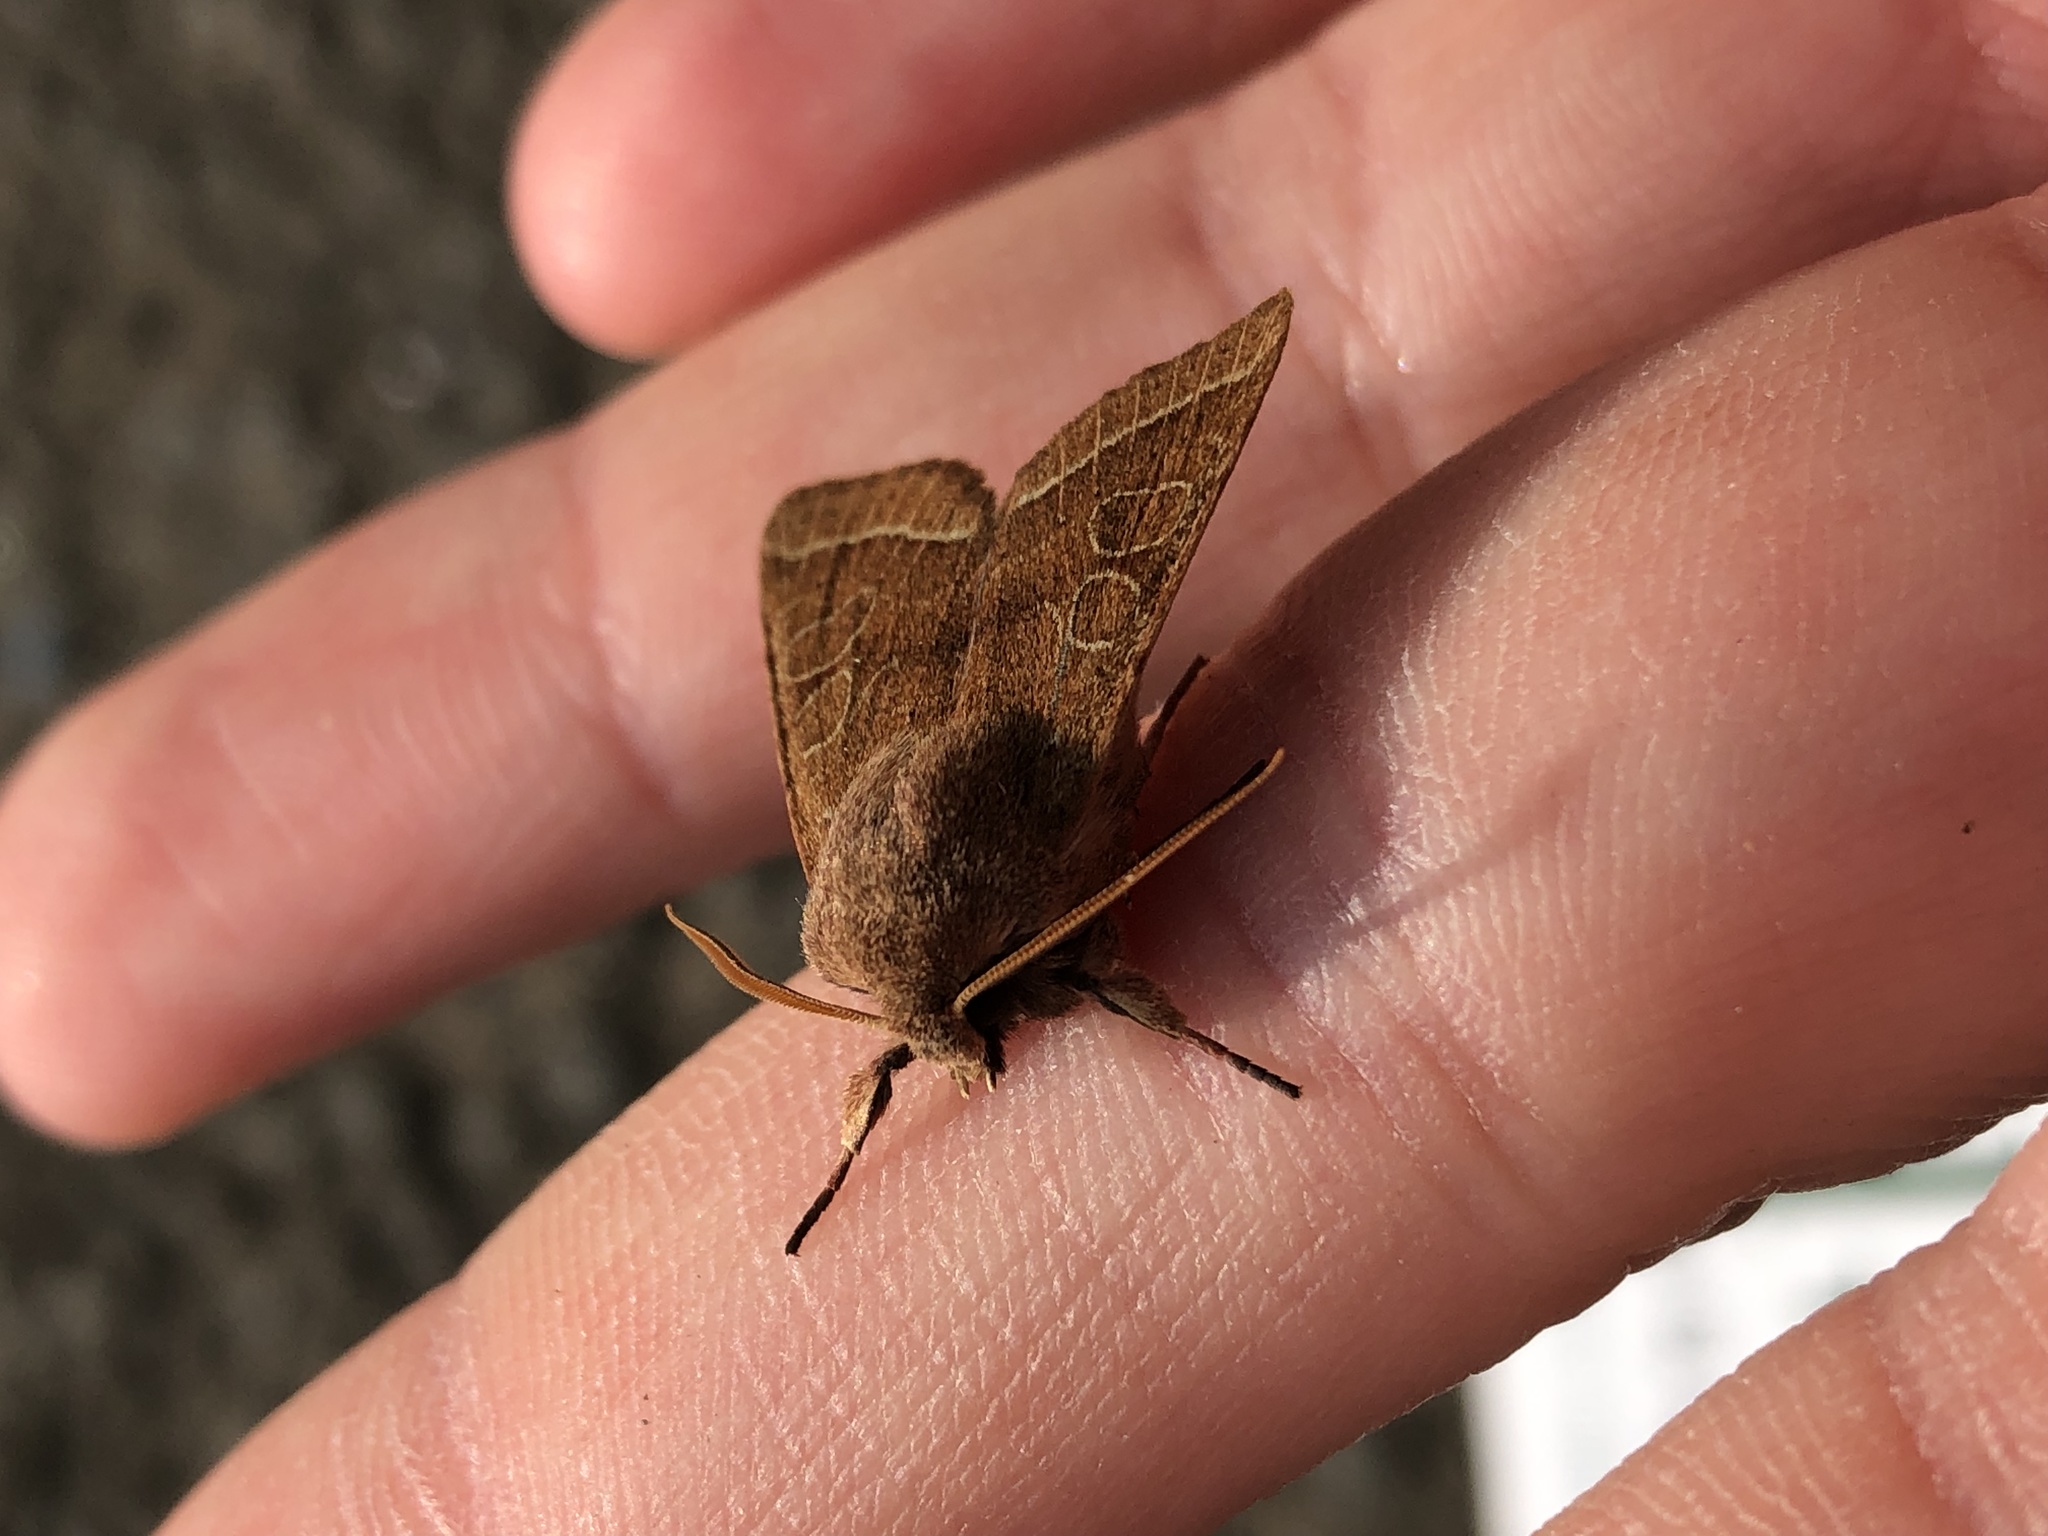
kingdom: Animalia
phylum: Arthropoda
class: Insecta
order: Lepidoptera
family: Noctuidae
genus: Orthosia
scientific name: Orthosia cerasi
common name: Common quaker
